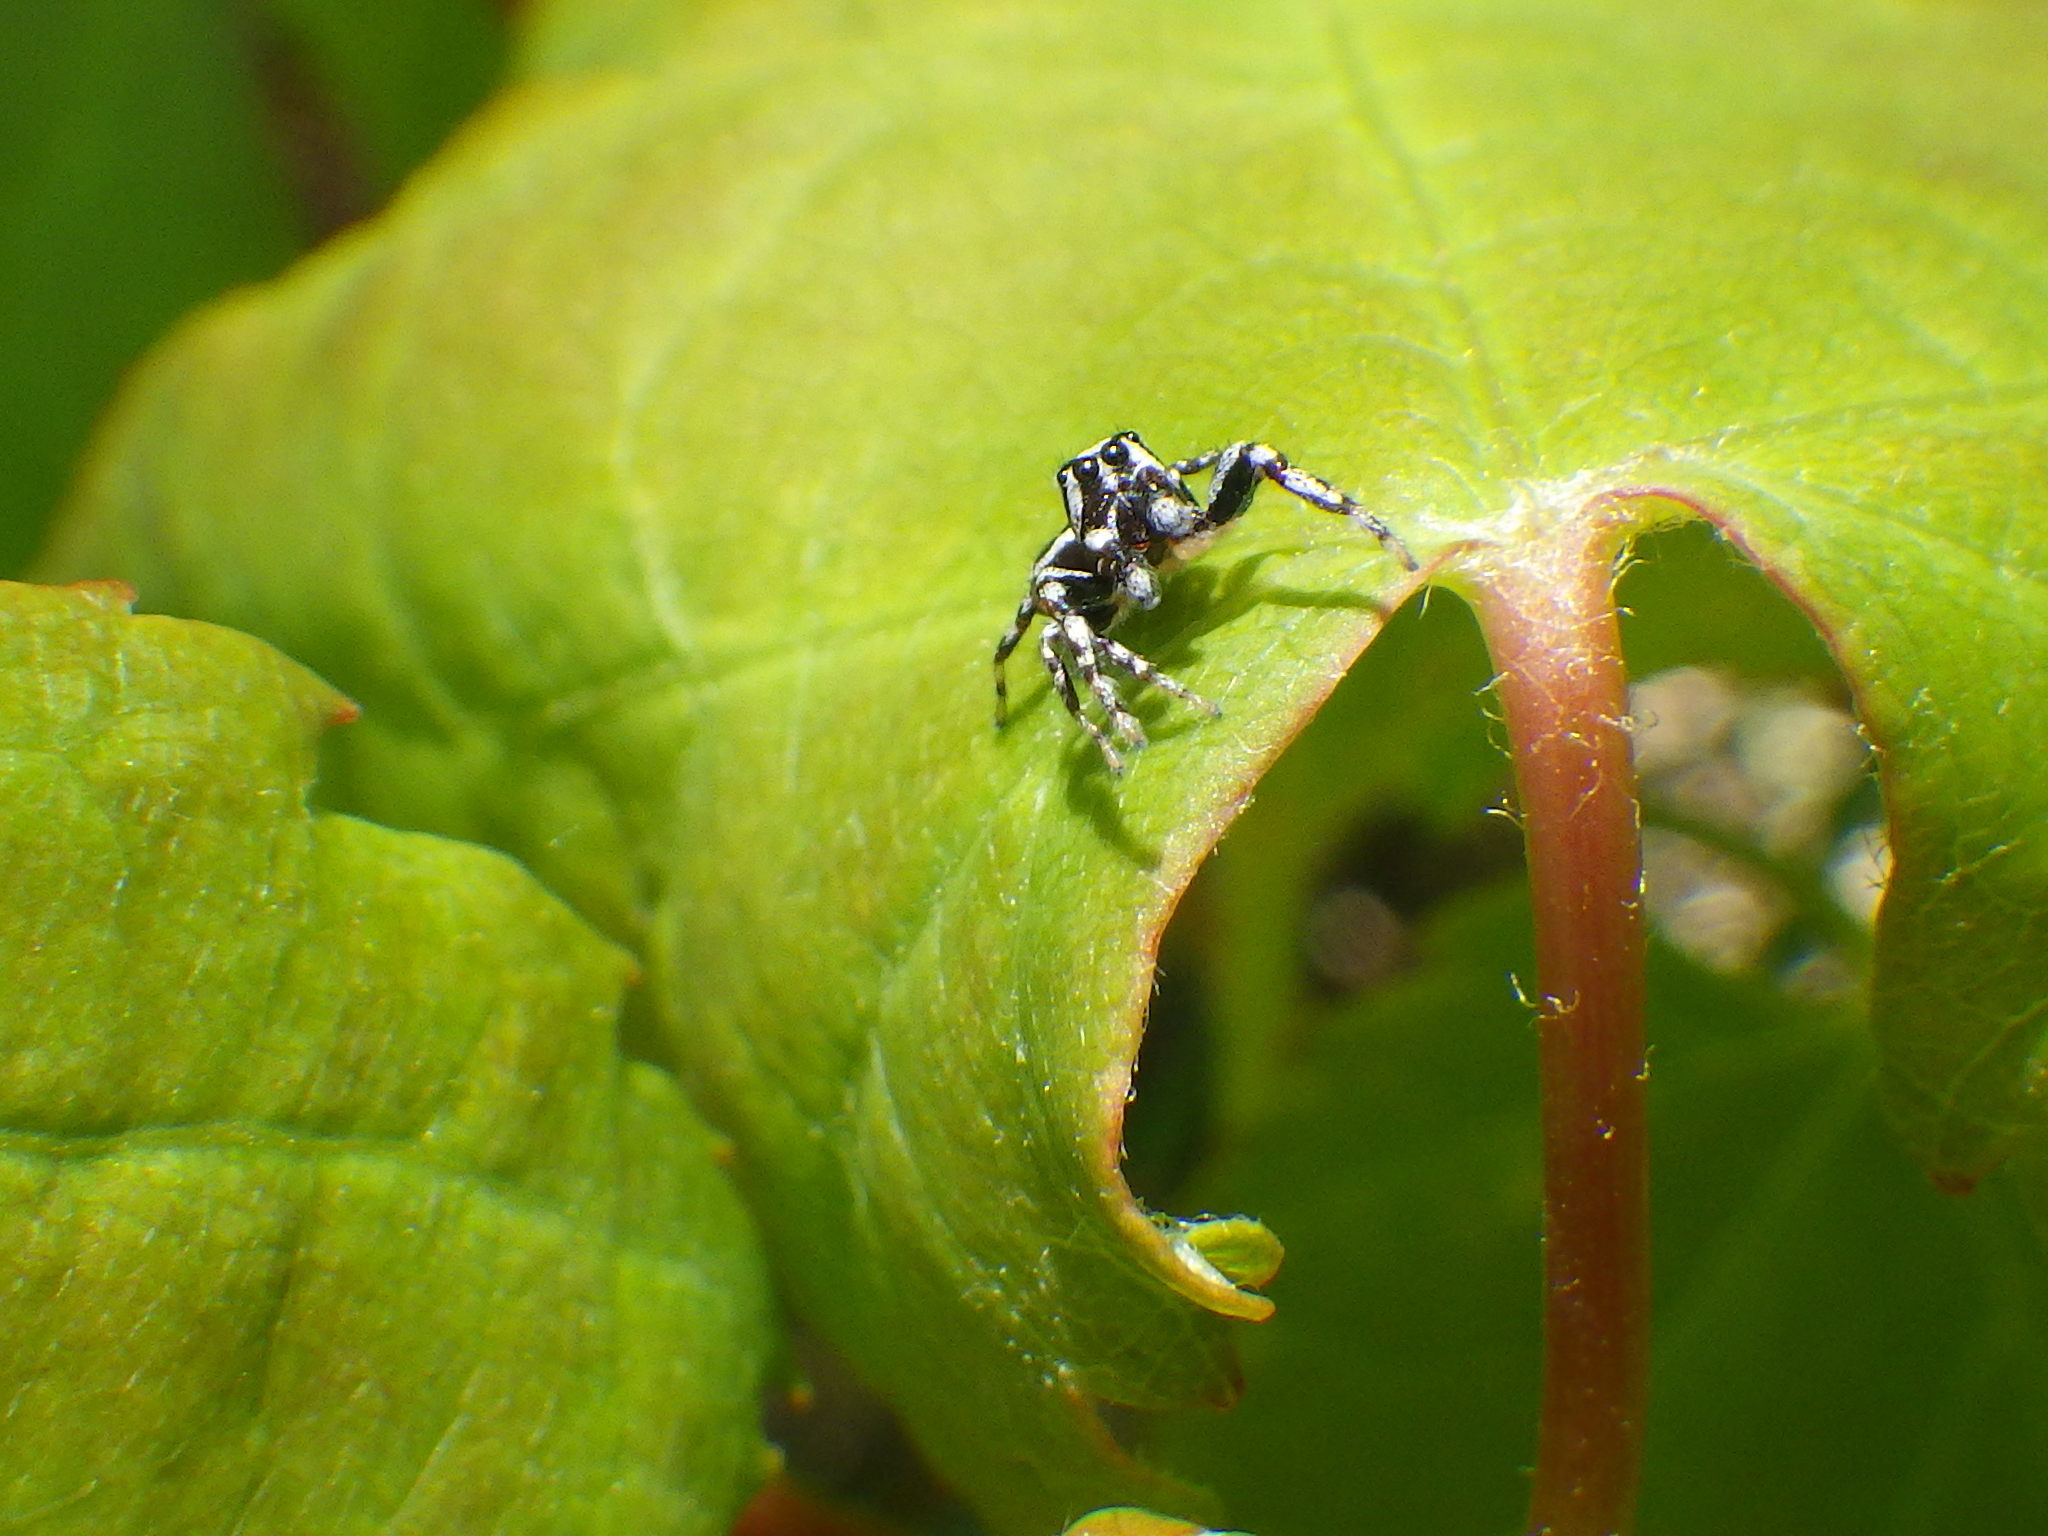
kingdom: Animalia
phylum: Arthropoda
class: Arachnida
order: Araneae
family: Salticidae
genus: Pelegrina
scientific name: Pelegrina proterva
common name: Common white-cheeked jumping spider
